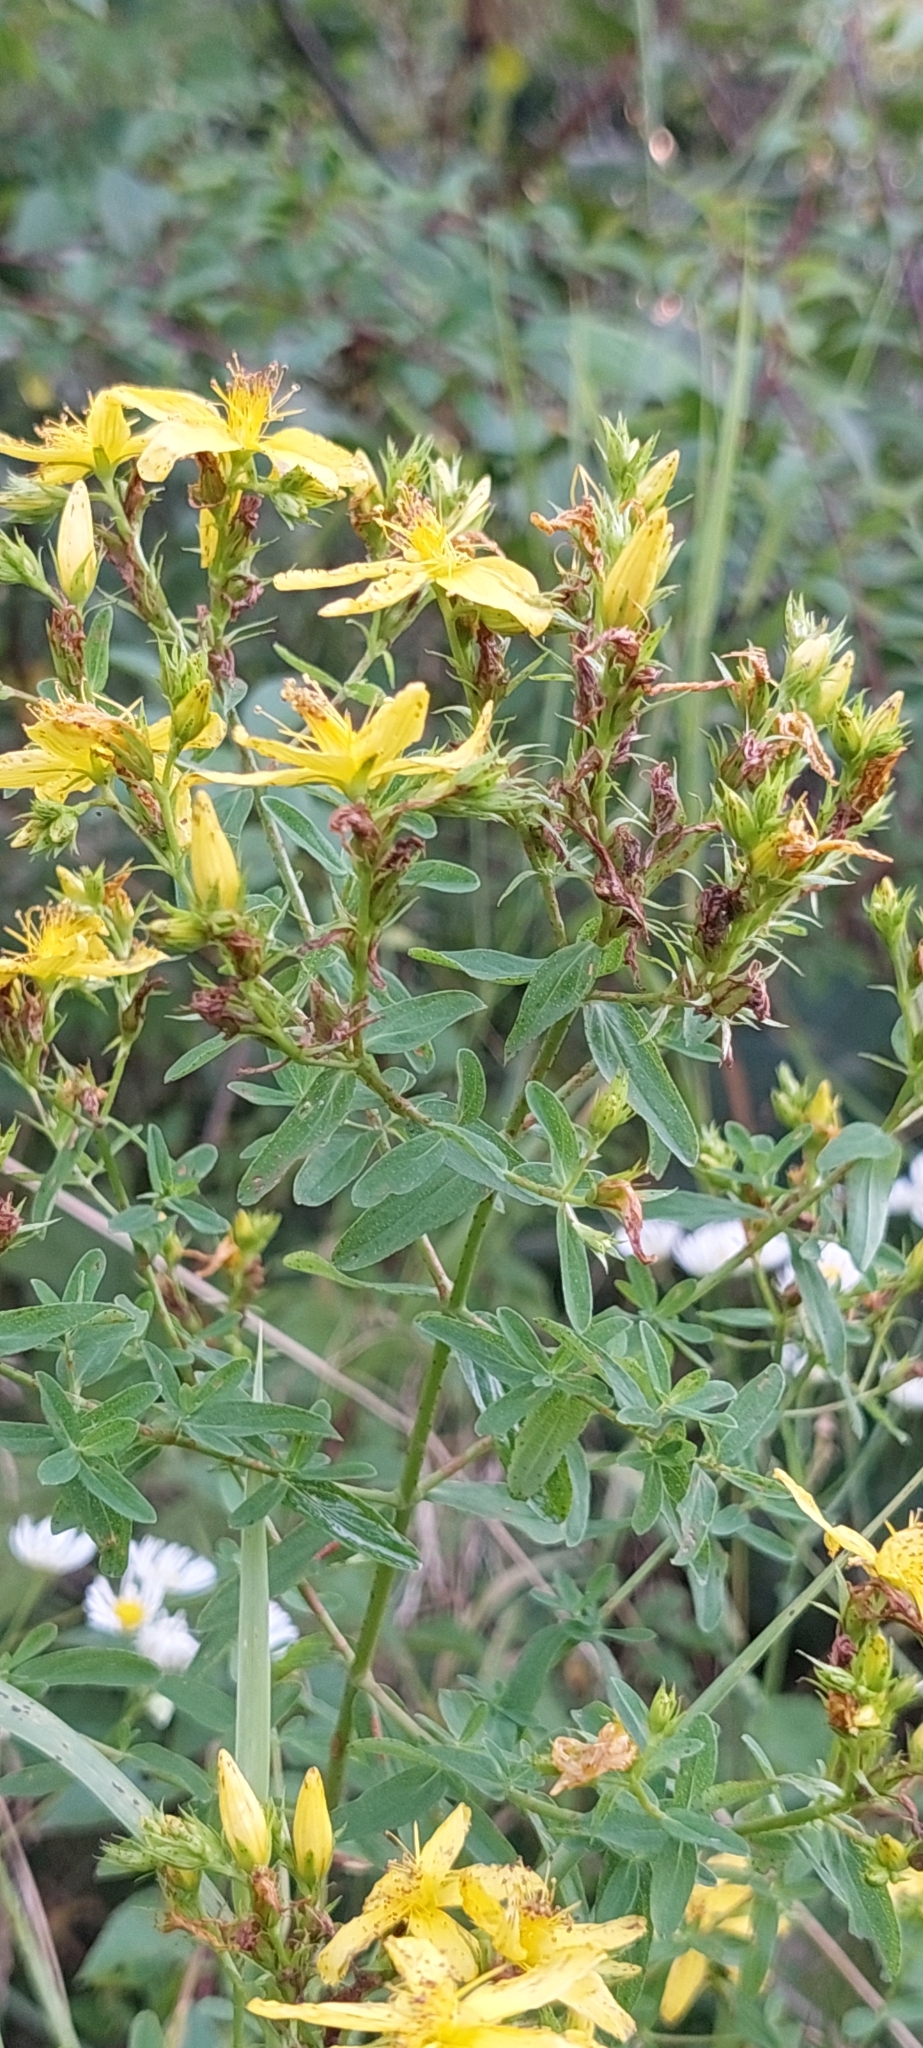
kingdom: Plantae
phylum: Tracheophyta
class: Magnoliopsida
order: Malpighiales
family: Hypericaceae
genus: Hypericum
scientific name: Hypericum perforatum
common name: Common st. johnswort
